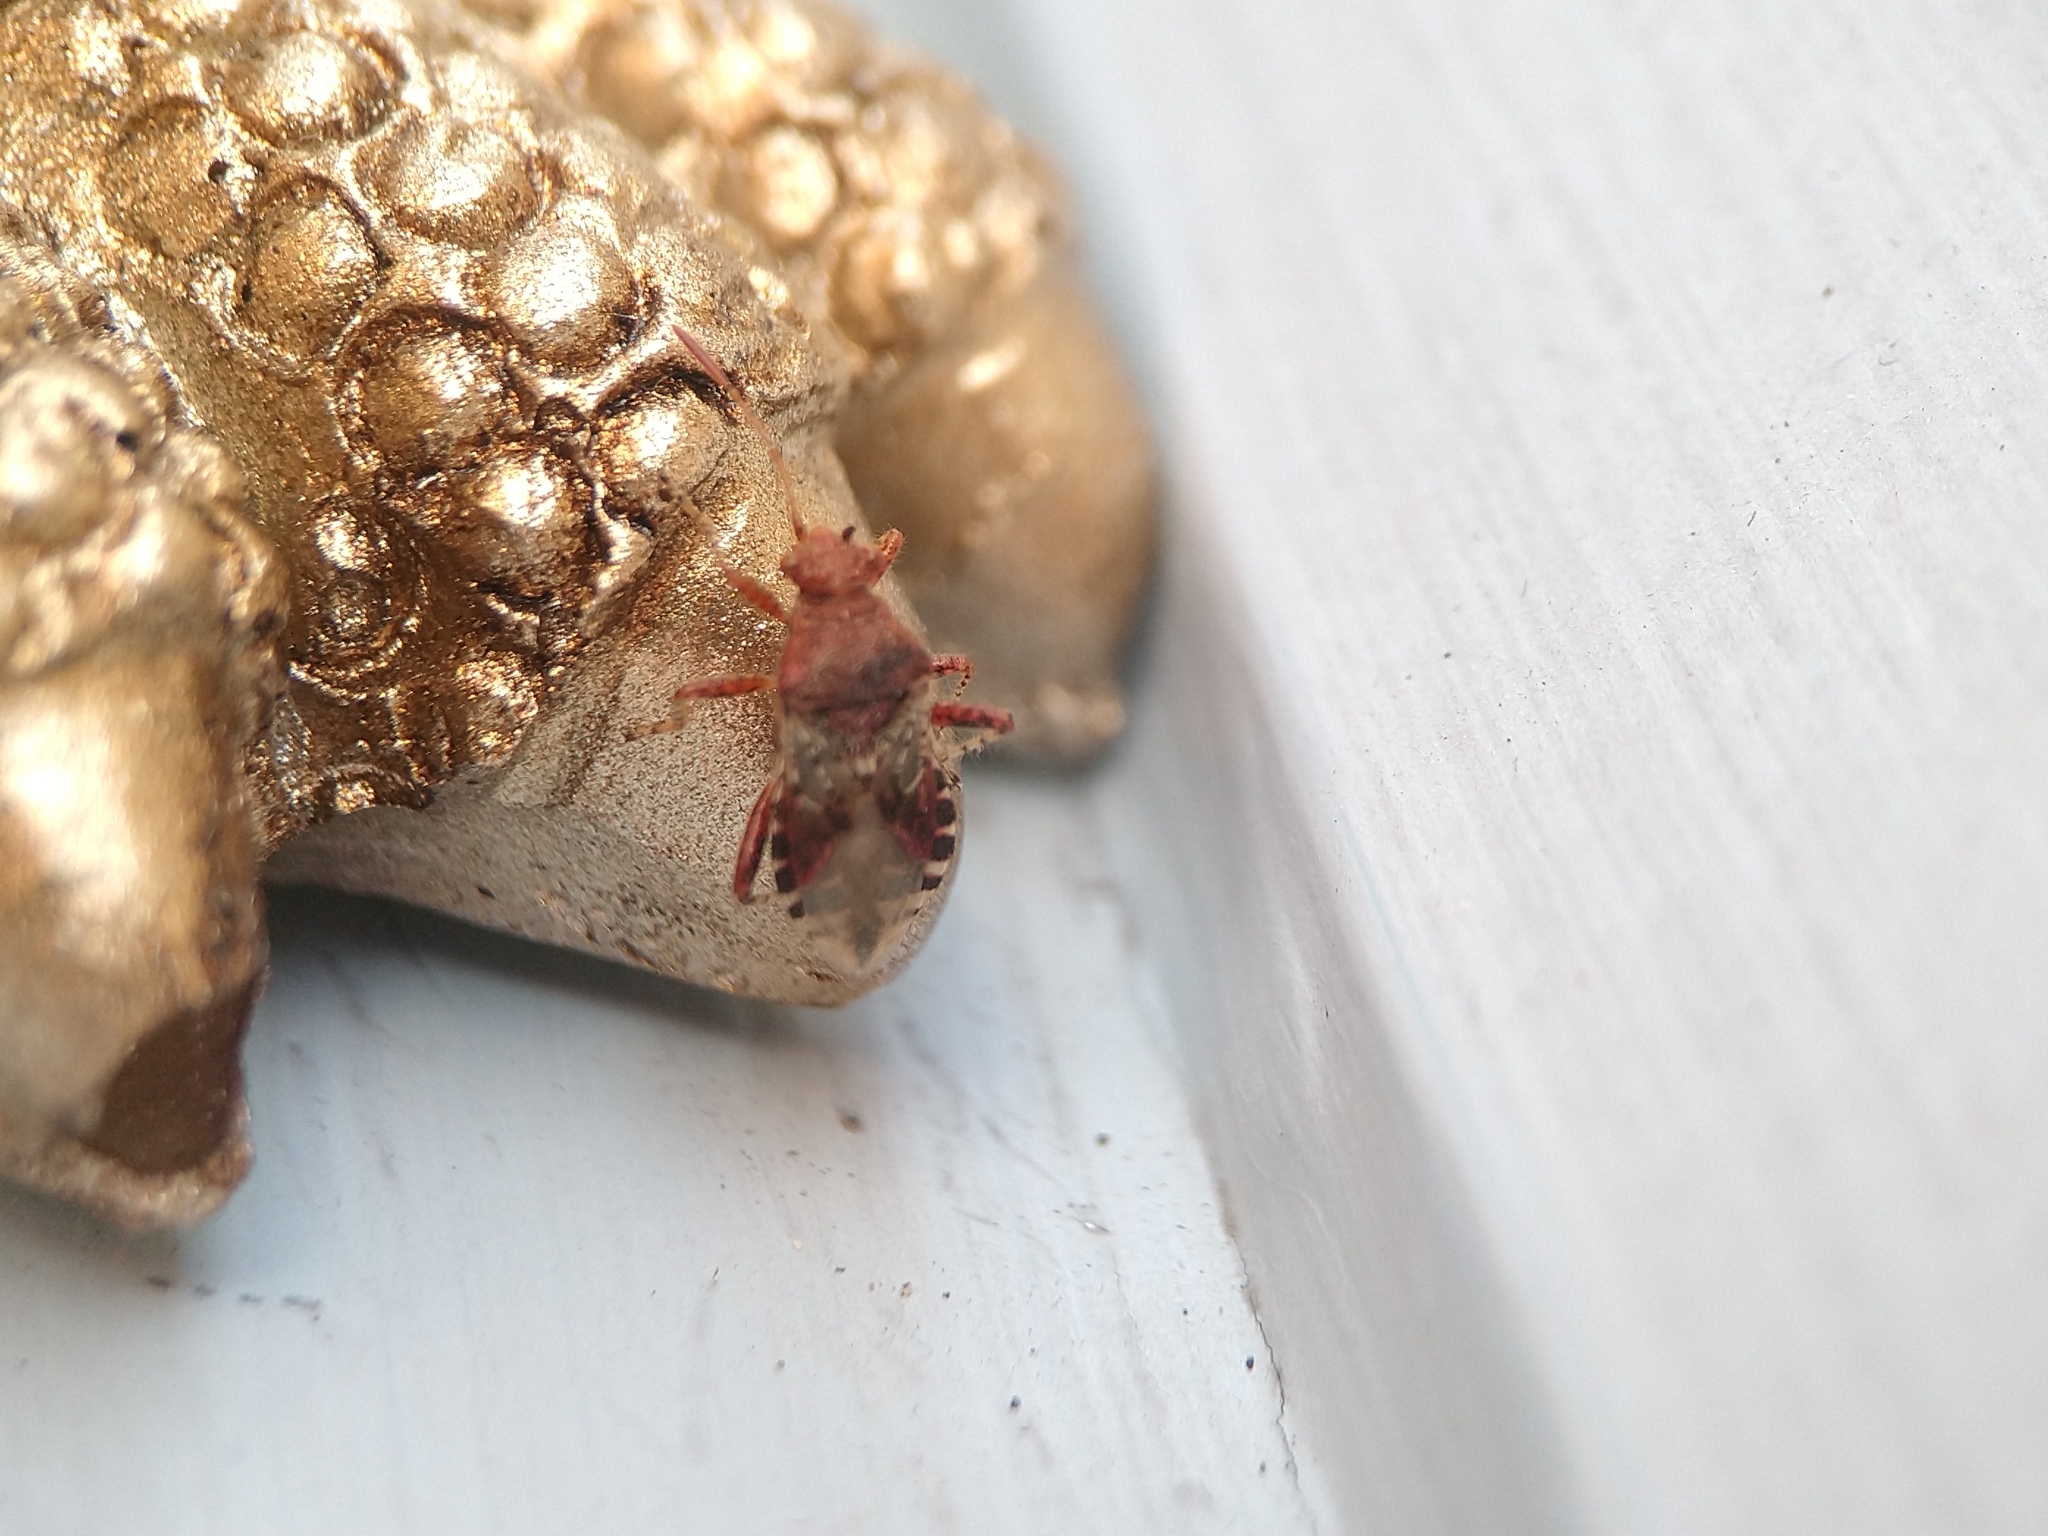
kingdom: Animalia
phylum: Arthropoda
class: Insecta
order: Hemiptera
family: Rhopalidae
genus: Rhopalus
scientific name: Rhopalus subrufus
